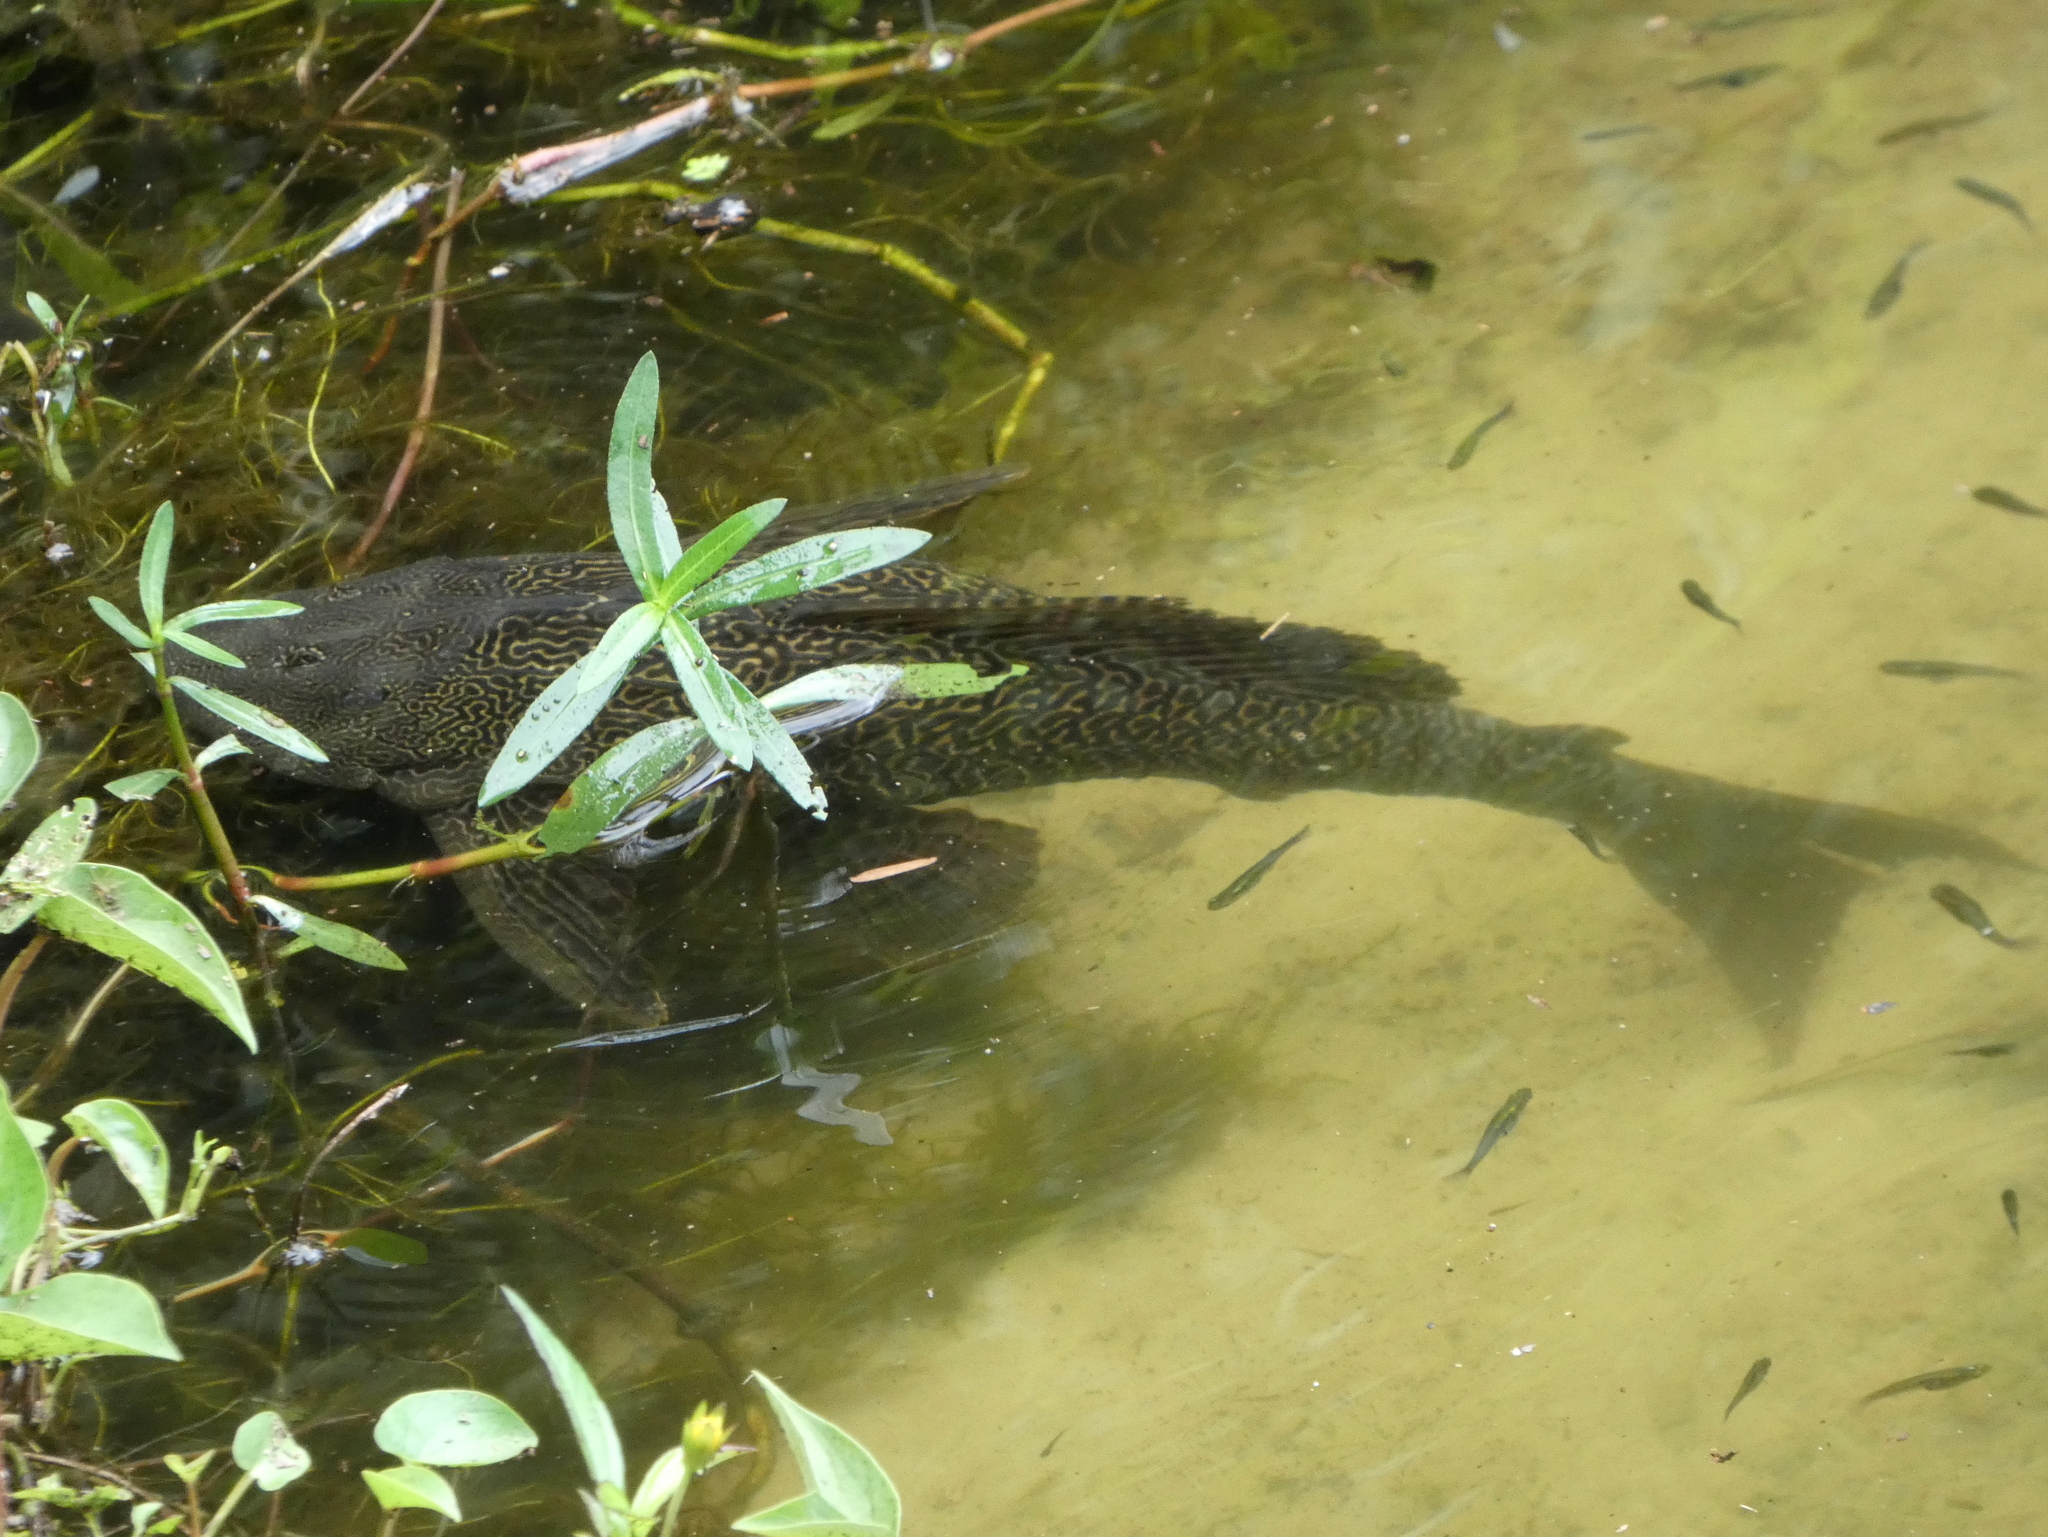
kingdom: Animalia
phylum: Chordata
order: Siluriformes
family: Loricariidae
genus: Pterygoplichthys
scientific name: Pterygoplichthys
